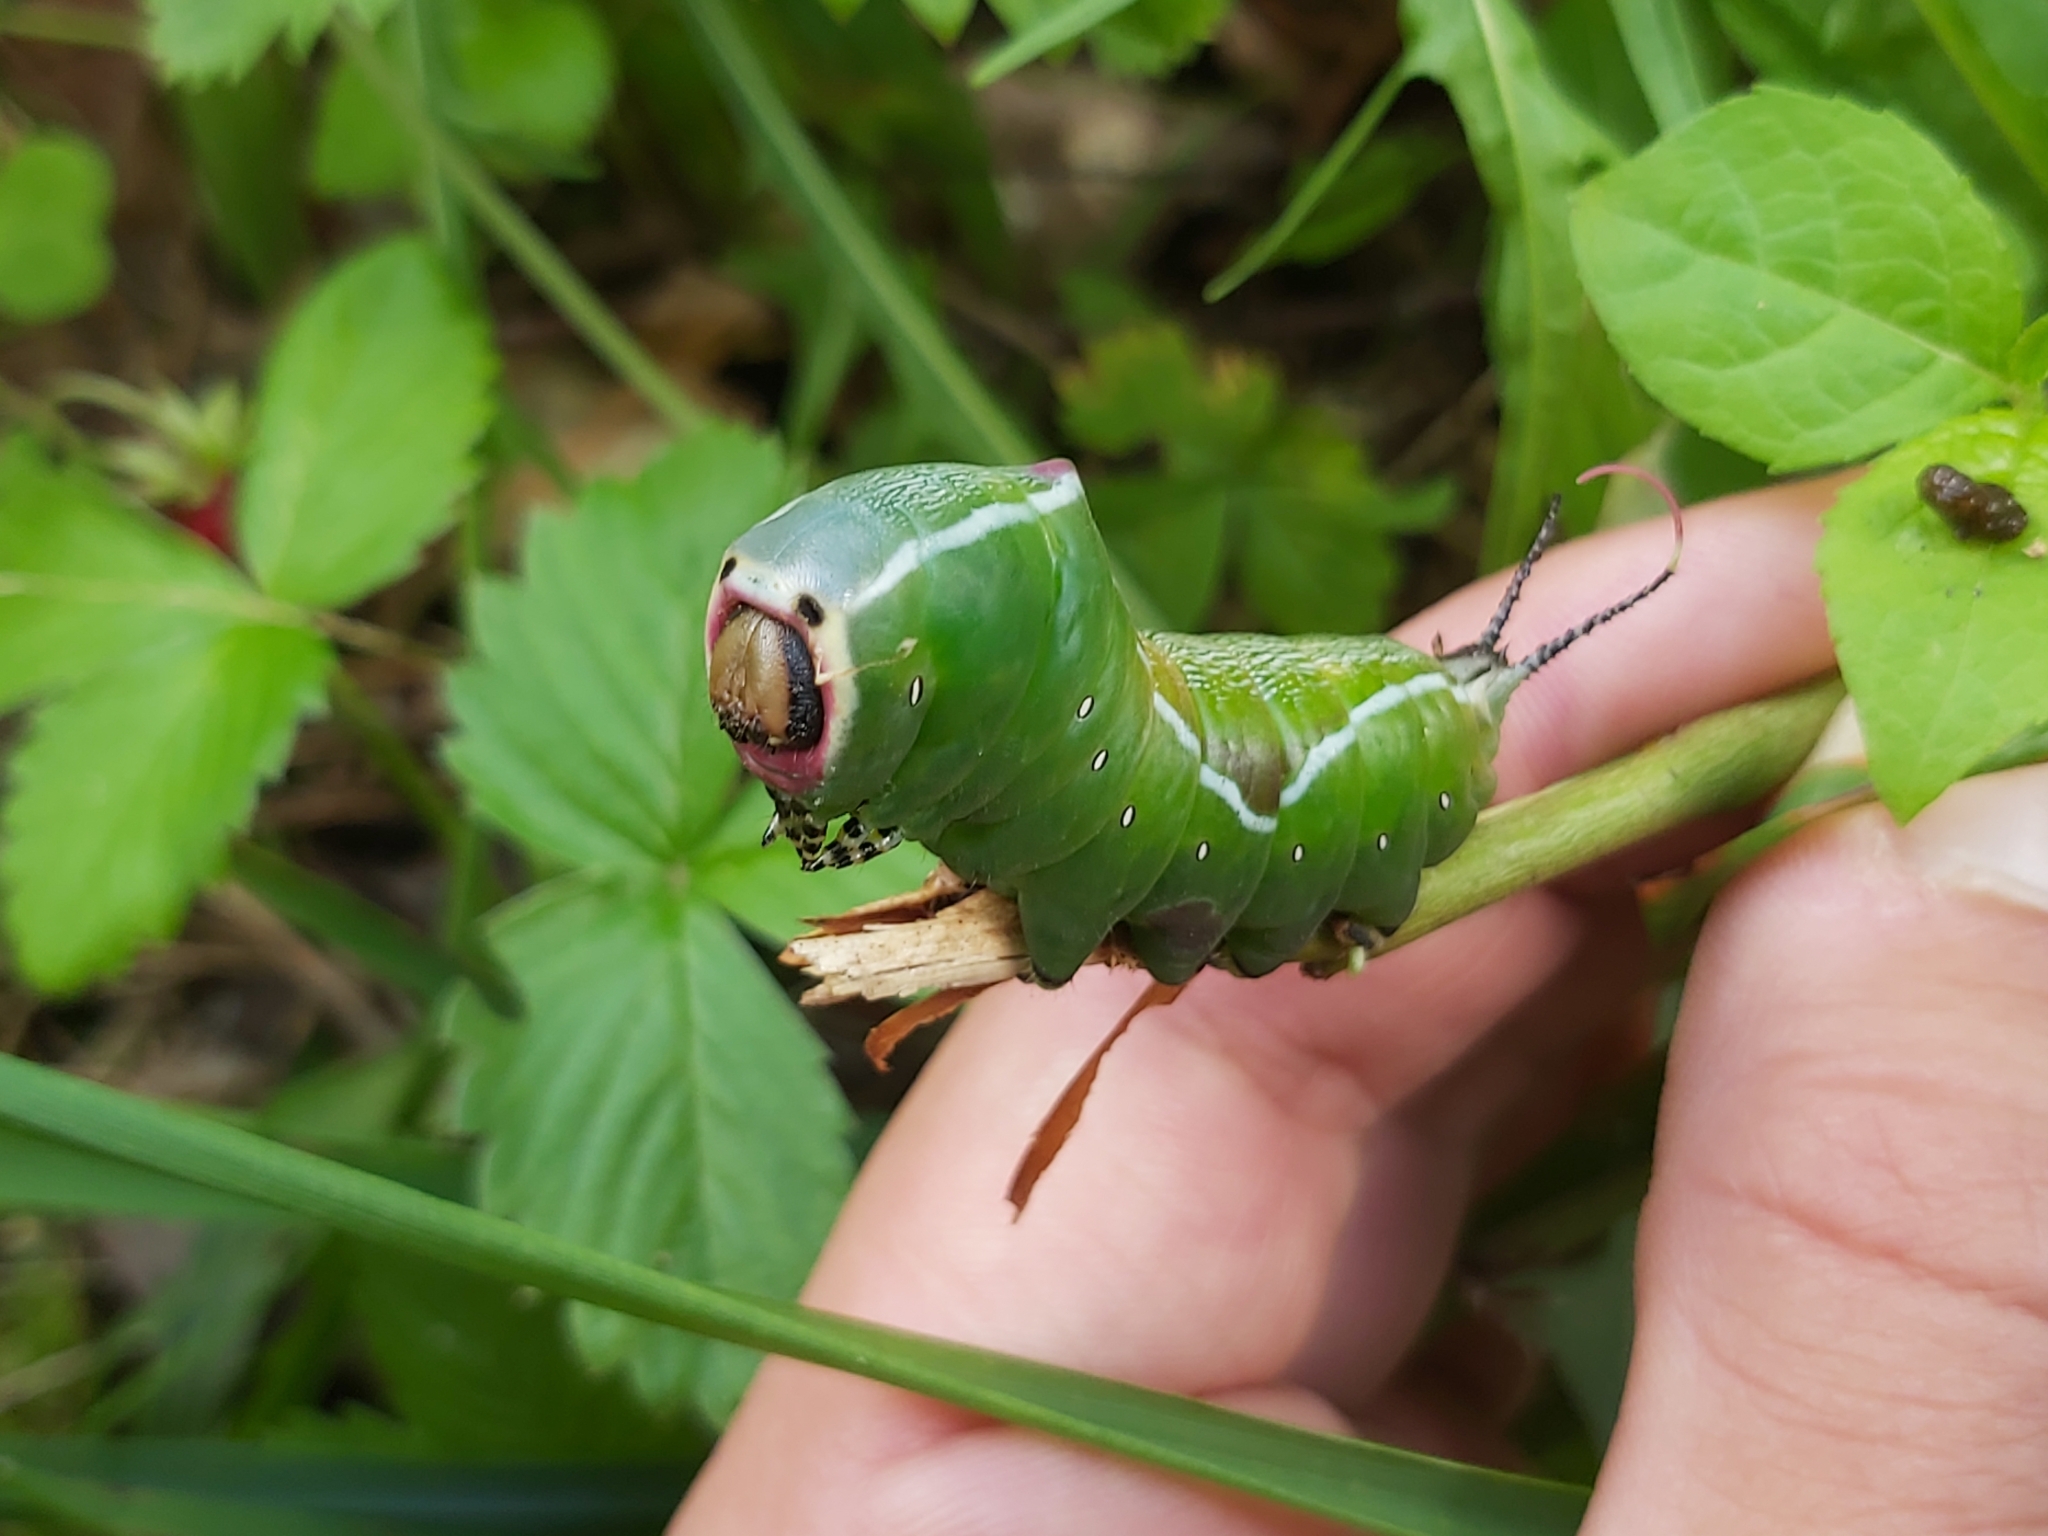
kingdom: Animalia
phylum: Arthropoda
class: Insecta
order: Lepidoptera
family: Notodontidae
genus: Cerura
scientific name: Cerura vinula
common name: Puss moth
